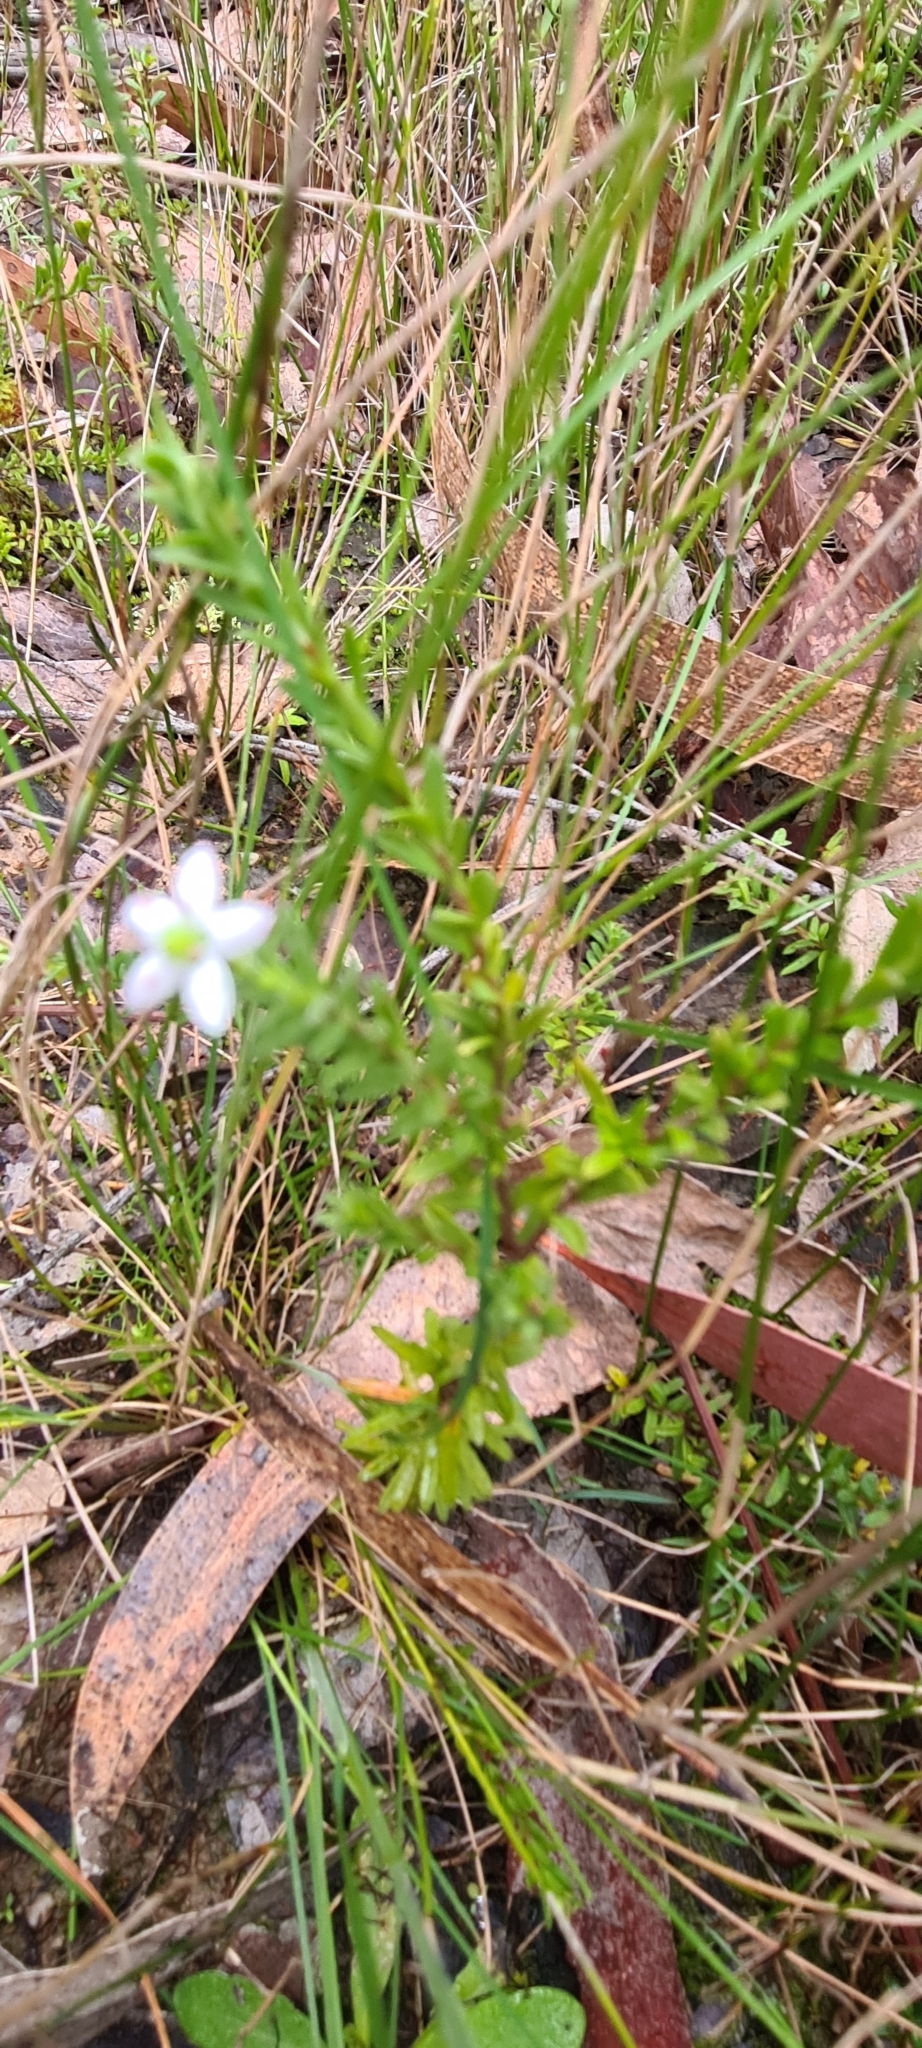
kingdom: Plantae
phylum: Tracheophyta
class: Magnoliopsida
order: Apiales
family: Pittosporaceae
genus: Rhytidosporum
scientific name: Rhytidosporum procumbens
